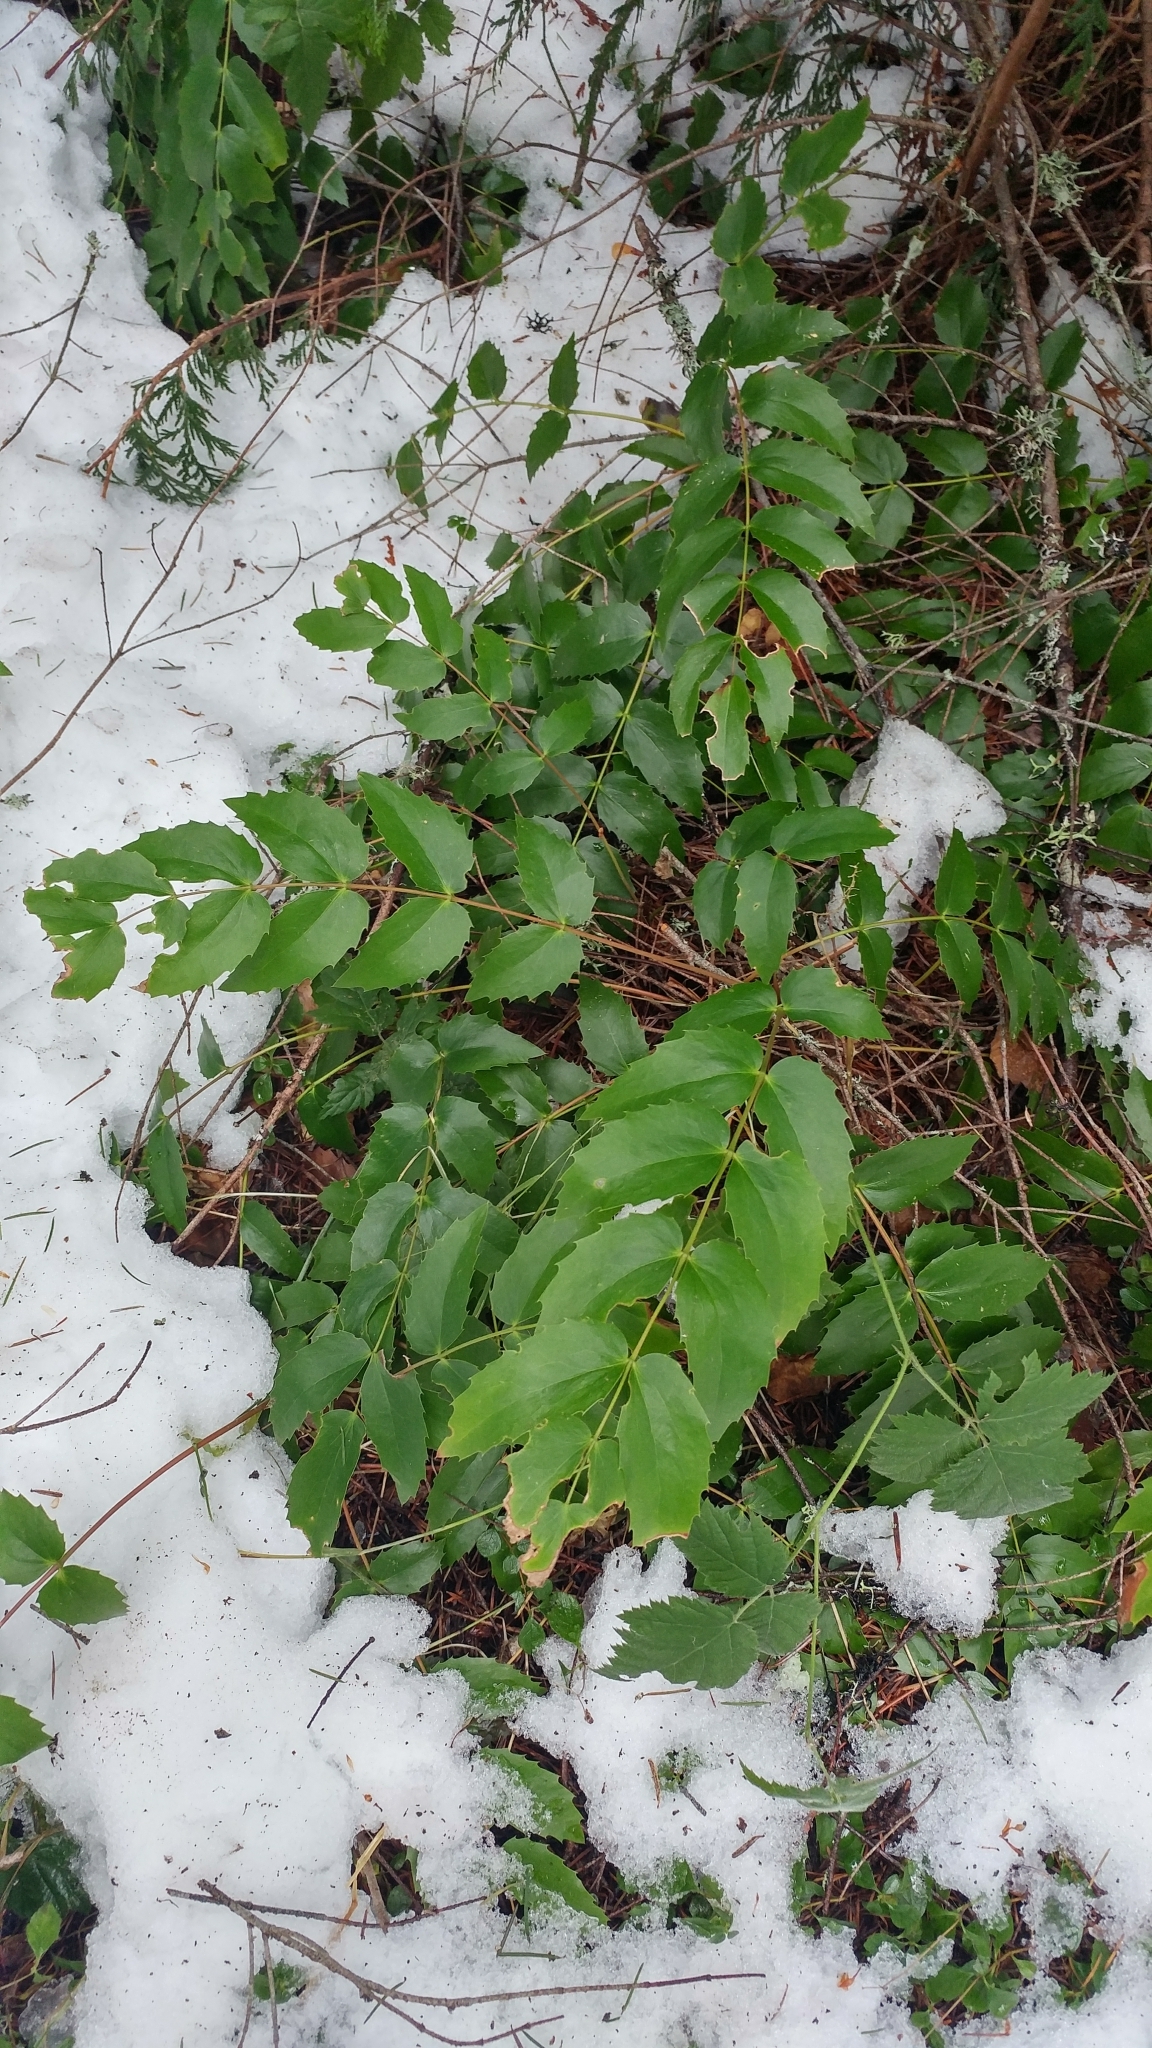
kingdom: Plantae
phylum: Tracheophyta
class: Magnoliopsida
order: Ranunculales
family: Berberidaceae
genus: Mahonia
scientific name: Mahonia nervosa
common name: Cascade oregon-grape
